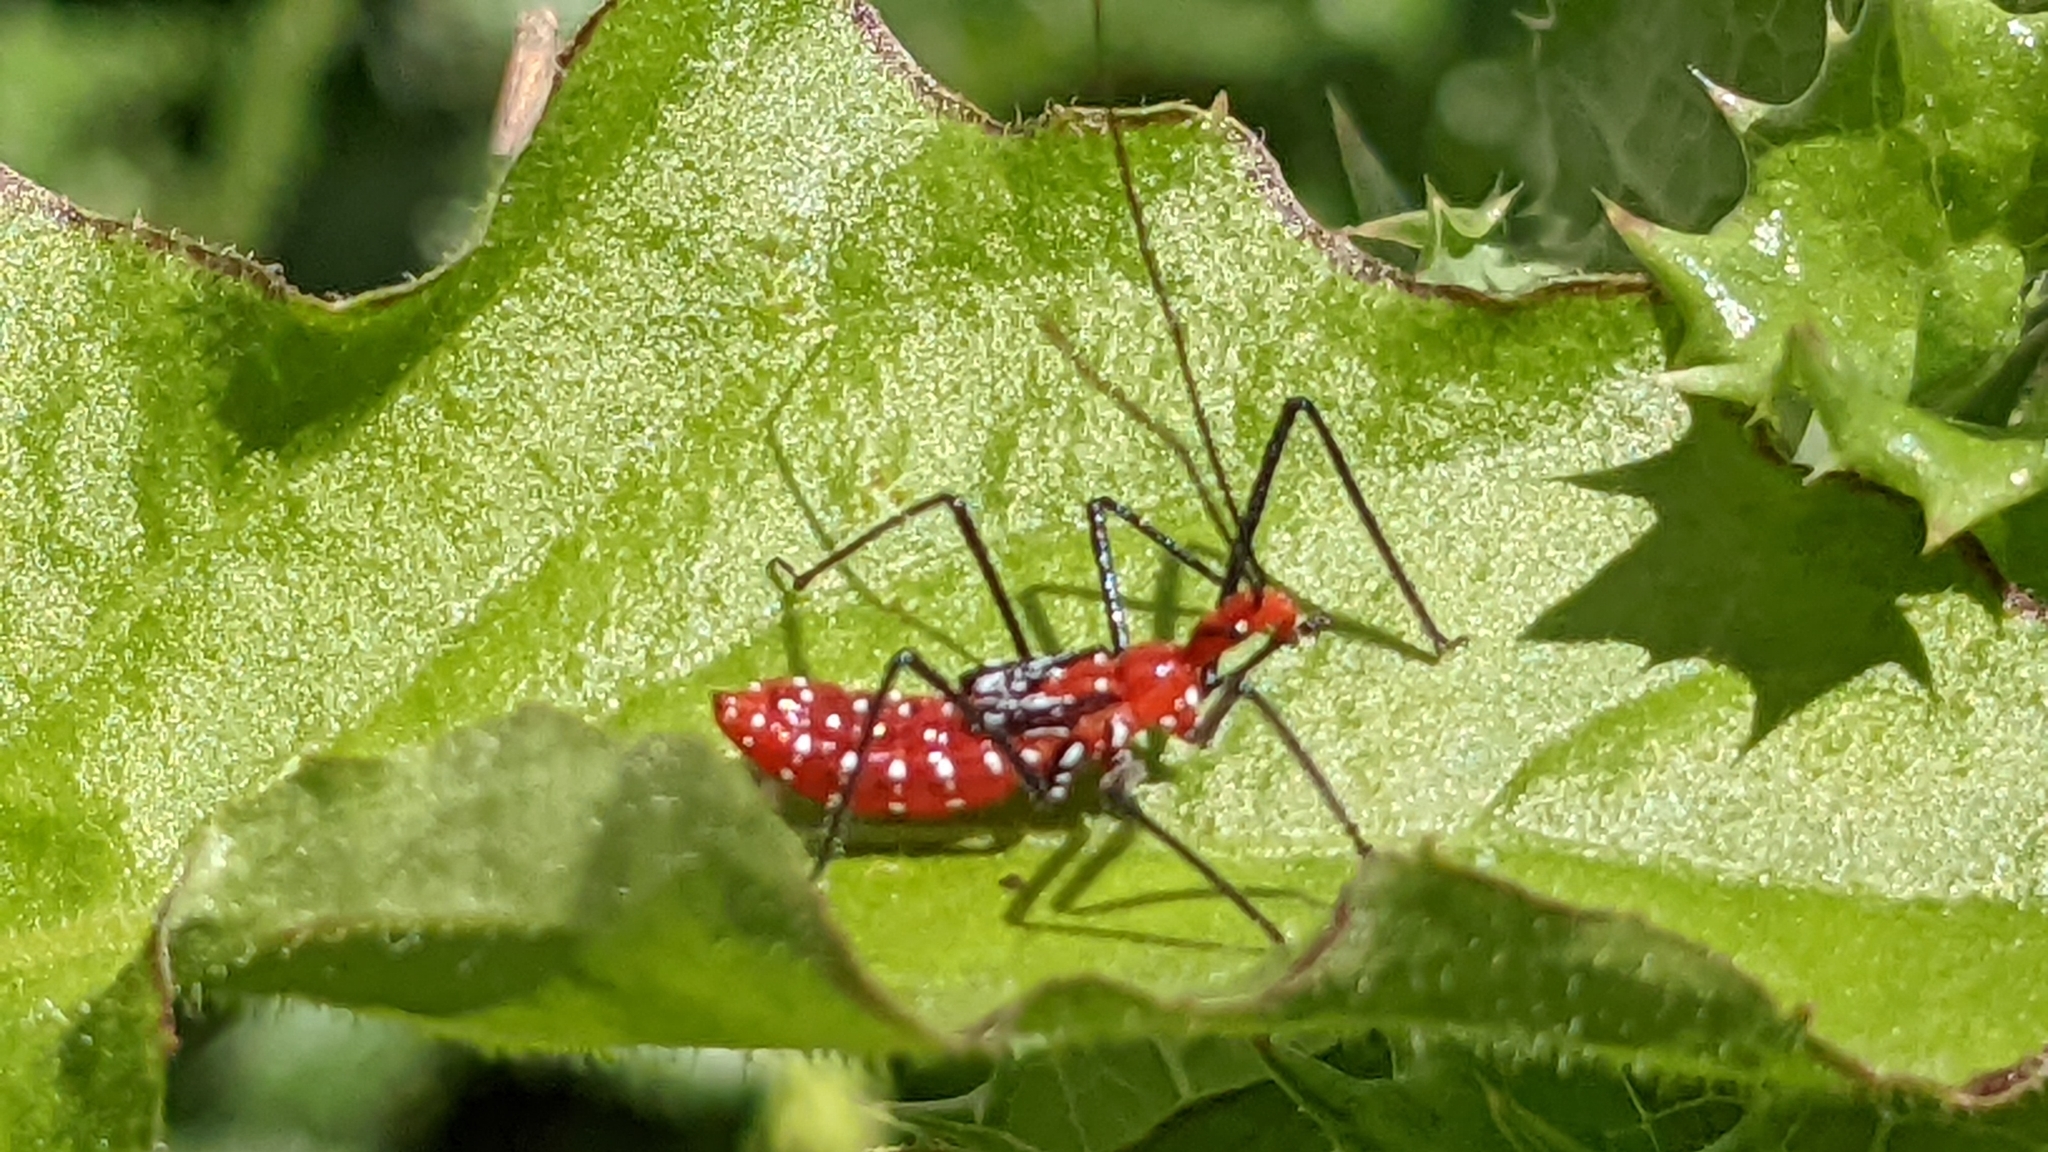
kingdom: Animalia
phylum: Arthropoda
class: Insecta
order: Hemiptera
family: Reduviidae
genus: Zelus
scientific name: Zelus longipes
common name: Milkweed assassin bug
